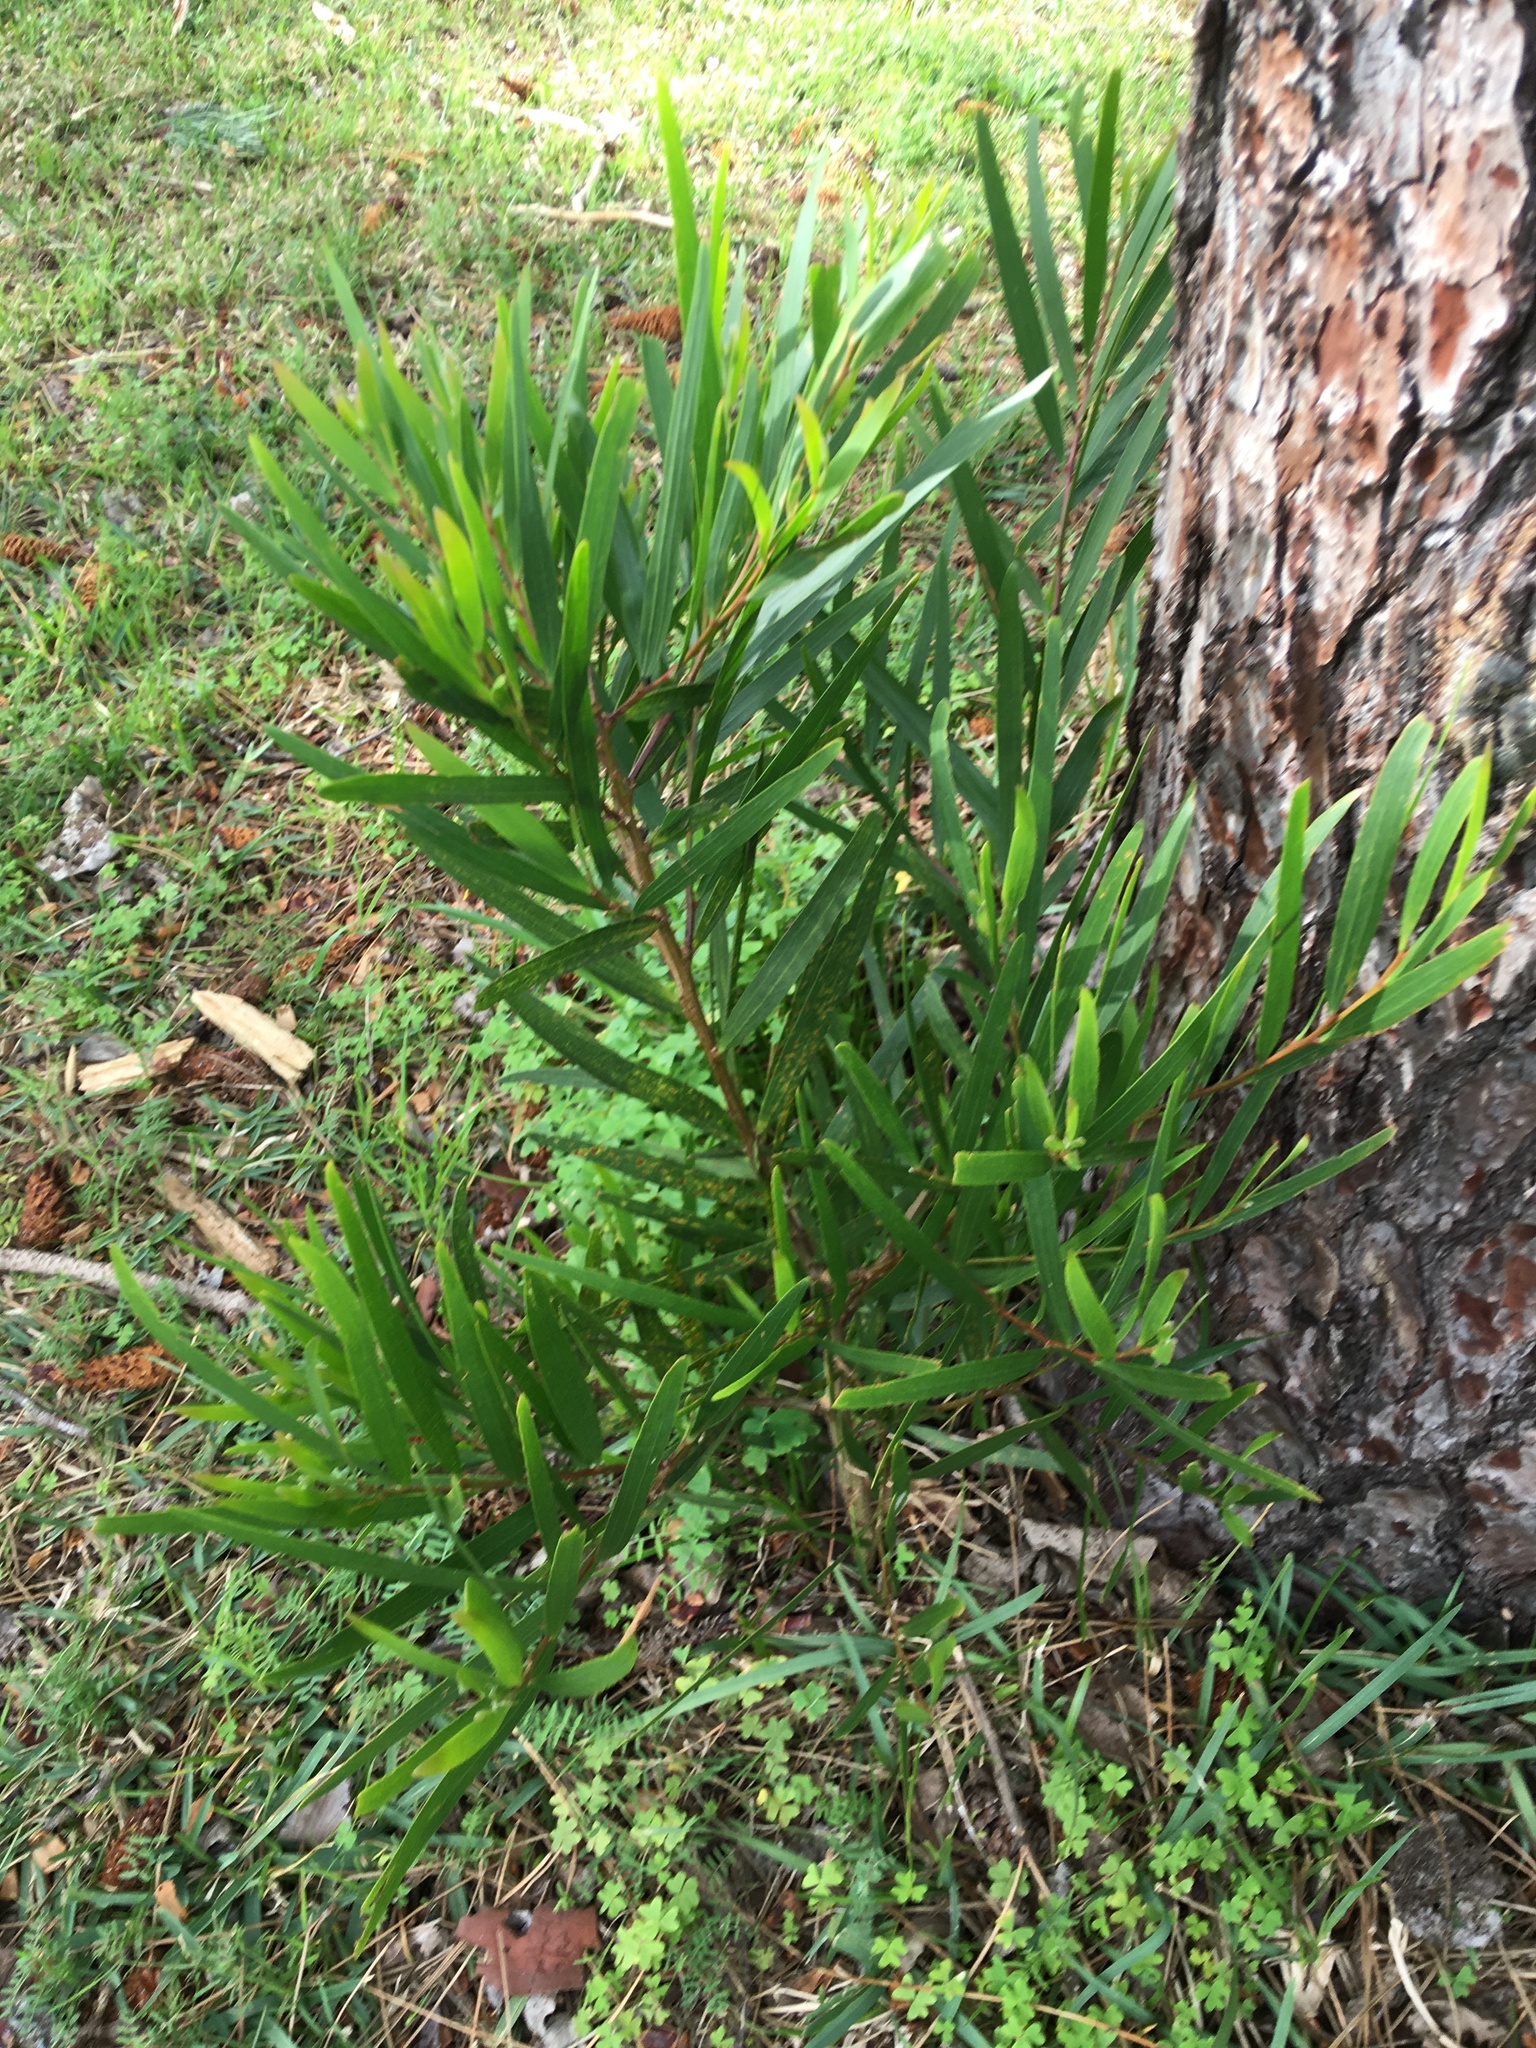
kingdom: Plantae
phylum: Tracheophyta
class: Magnoliopsida
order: Fabales
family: Fabaceae
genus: Acacia
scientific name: Acacia longifolia
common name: Sydney golden wattle
